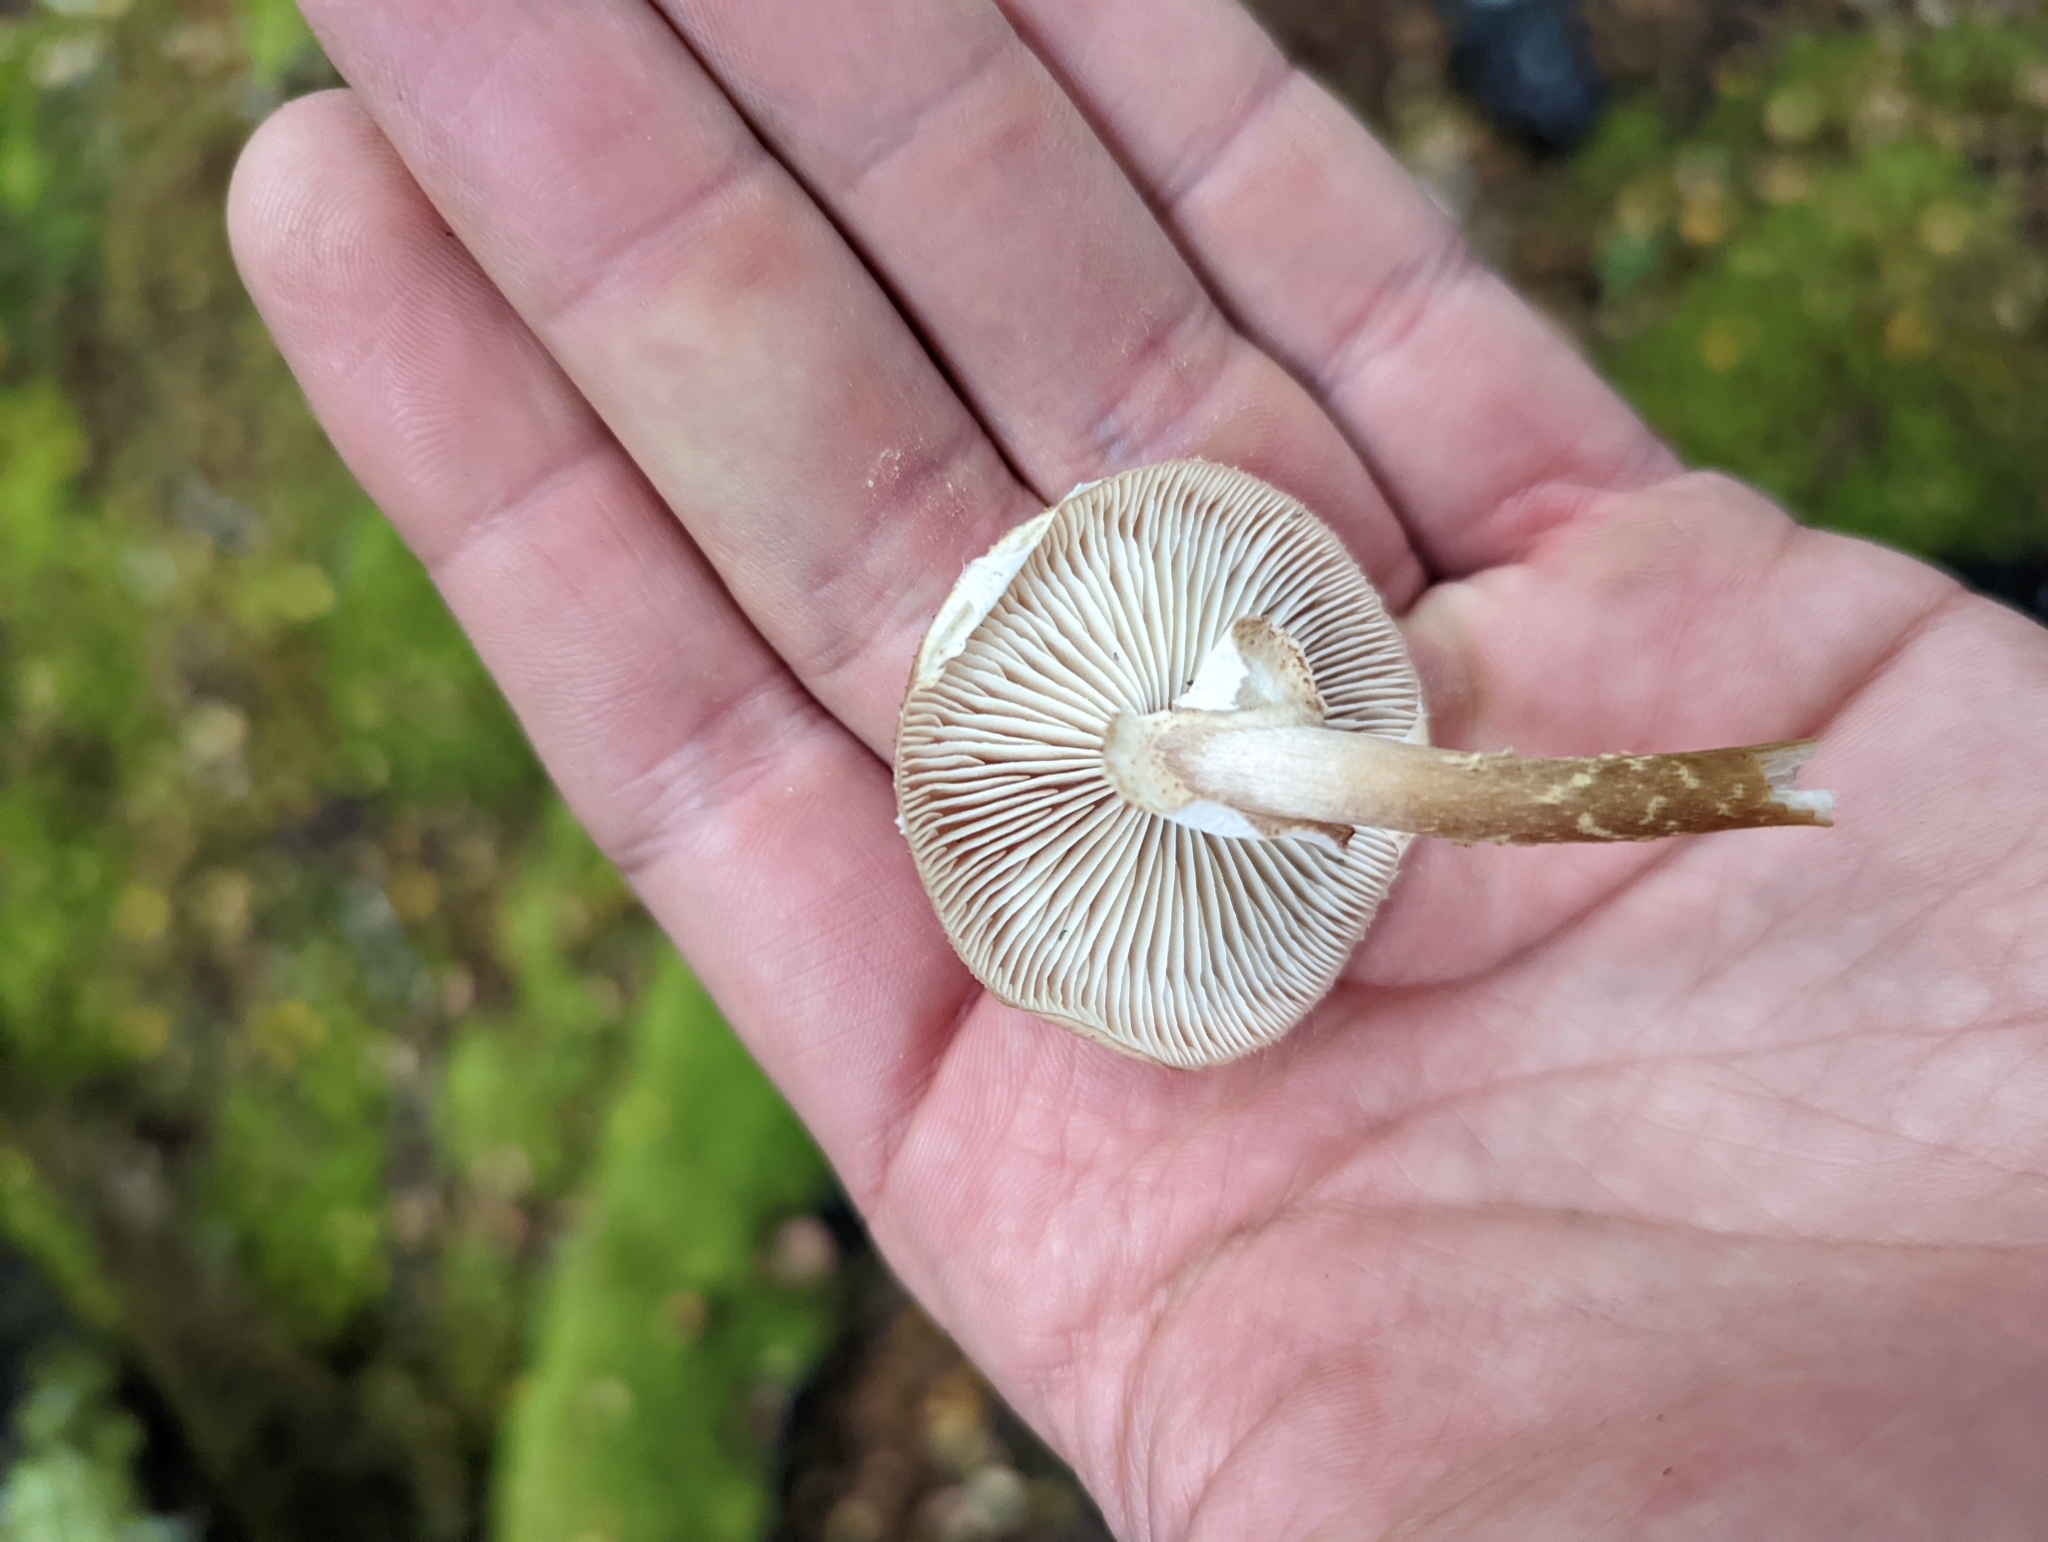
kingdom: Fungi
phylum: Basidiomycota
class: Agaricomycetes
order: Agaricales
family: Physalacriaceae
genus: Armillaria
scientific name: Armillaria novae-zelandiae
